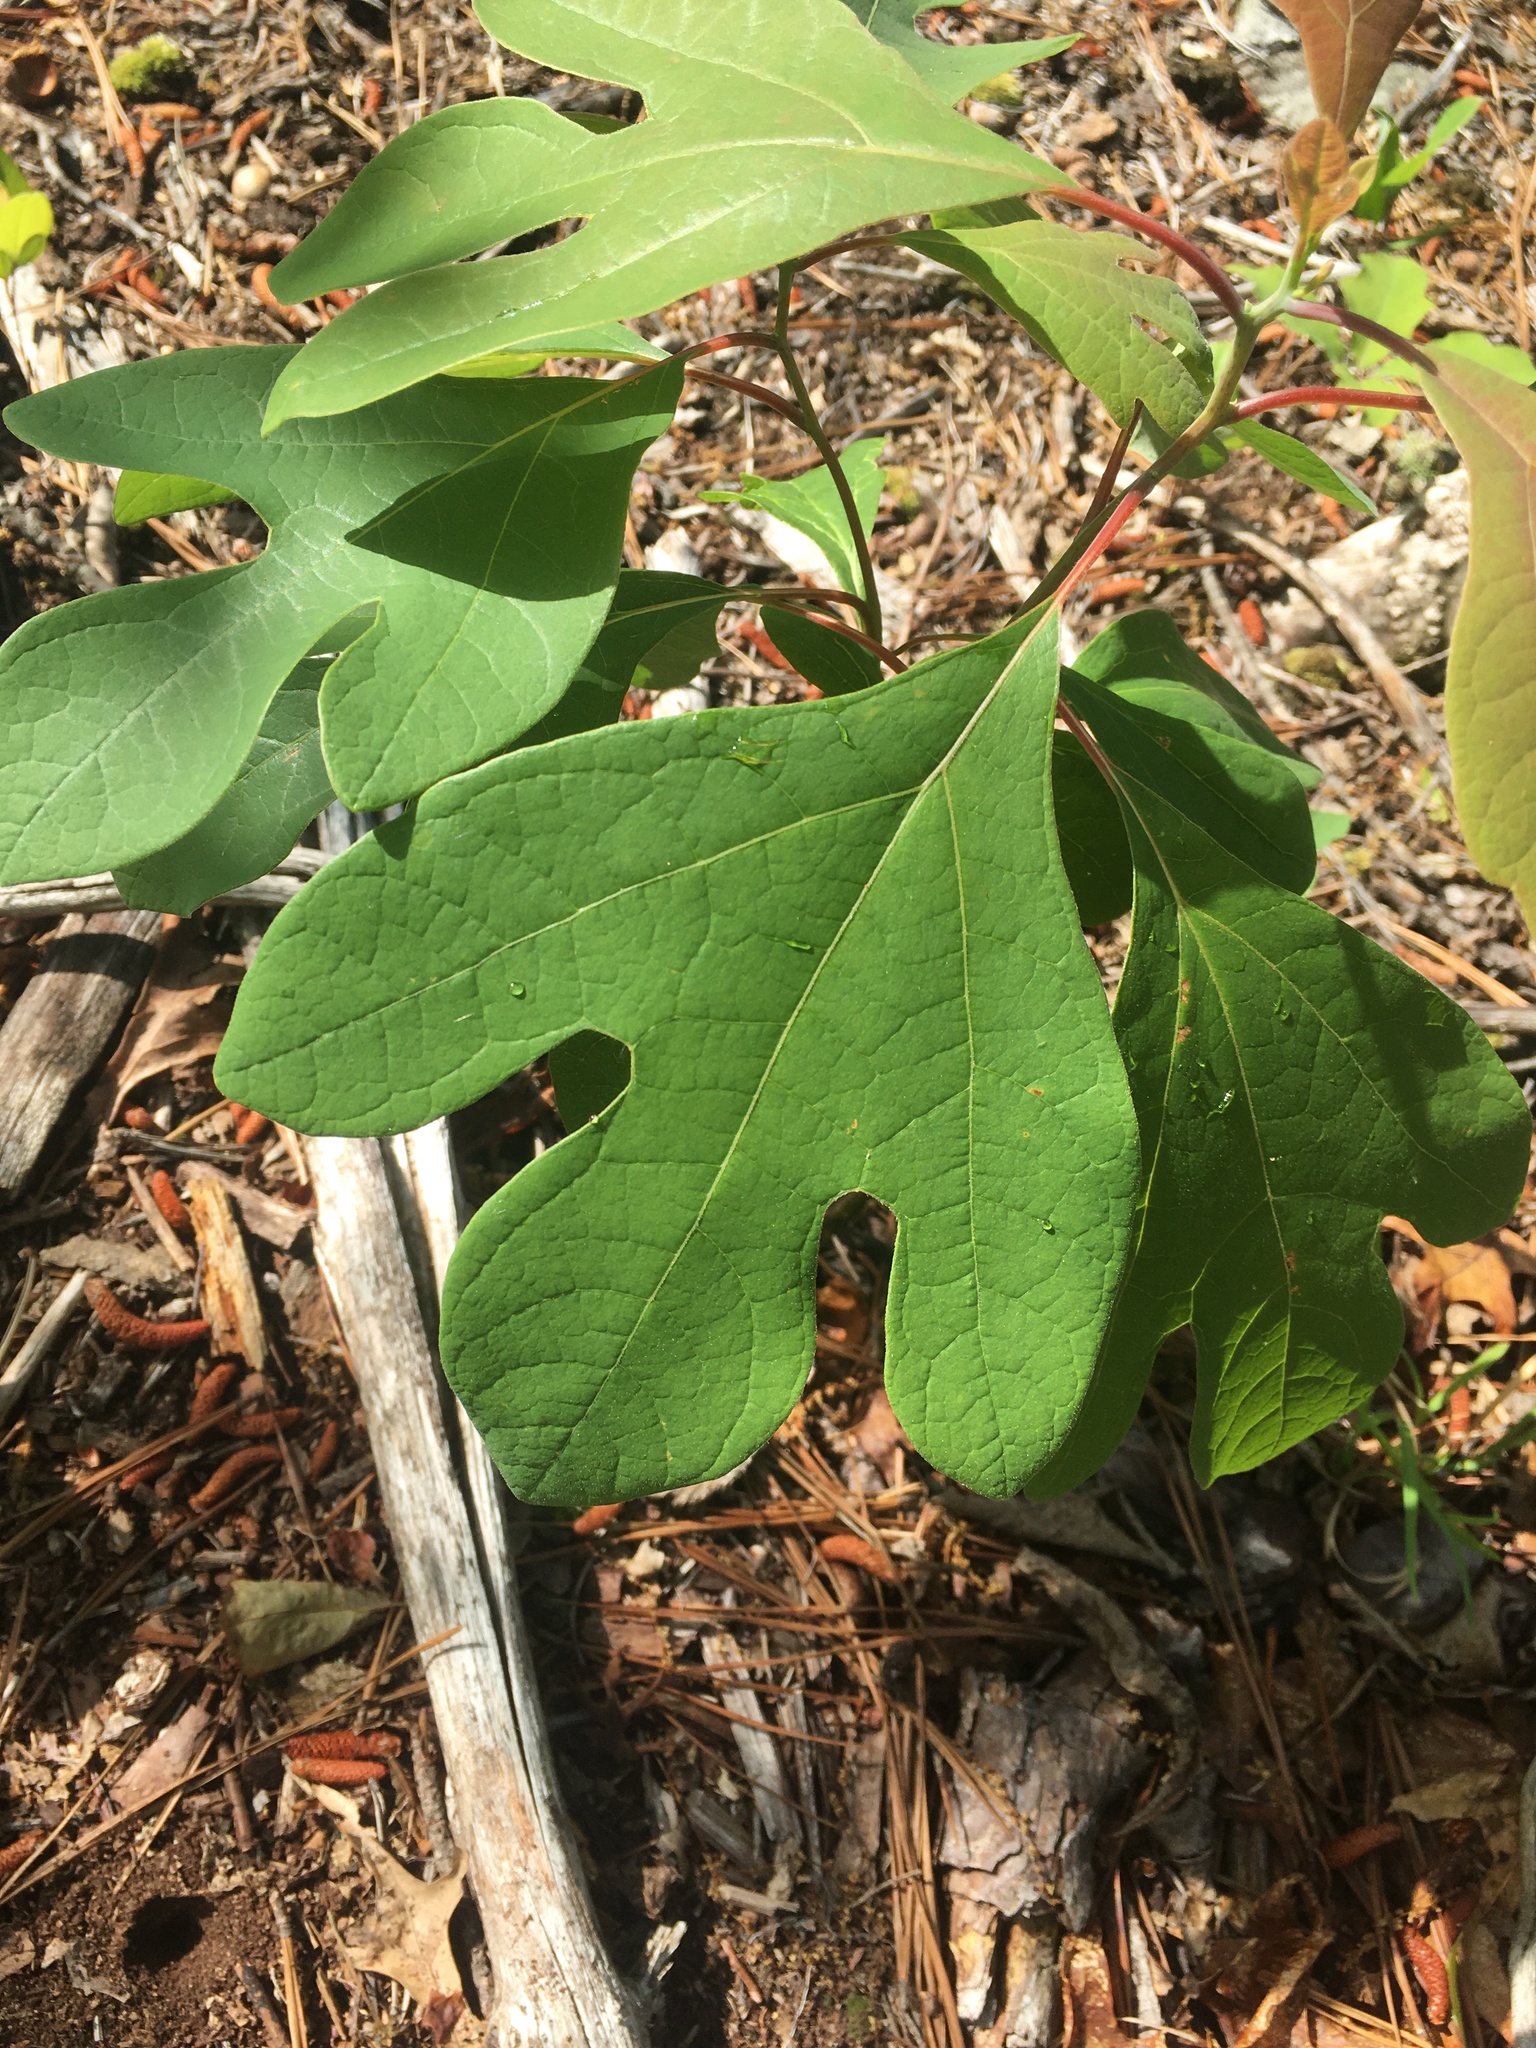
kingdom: Plantae
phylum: Tracheophyta
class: Magnoliopsida
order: Laurales
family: Lauraceae
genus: Sassafras
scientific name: Sassafras albidum
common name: Sassafras
